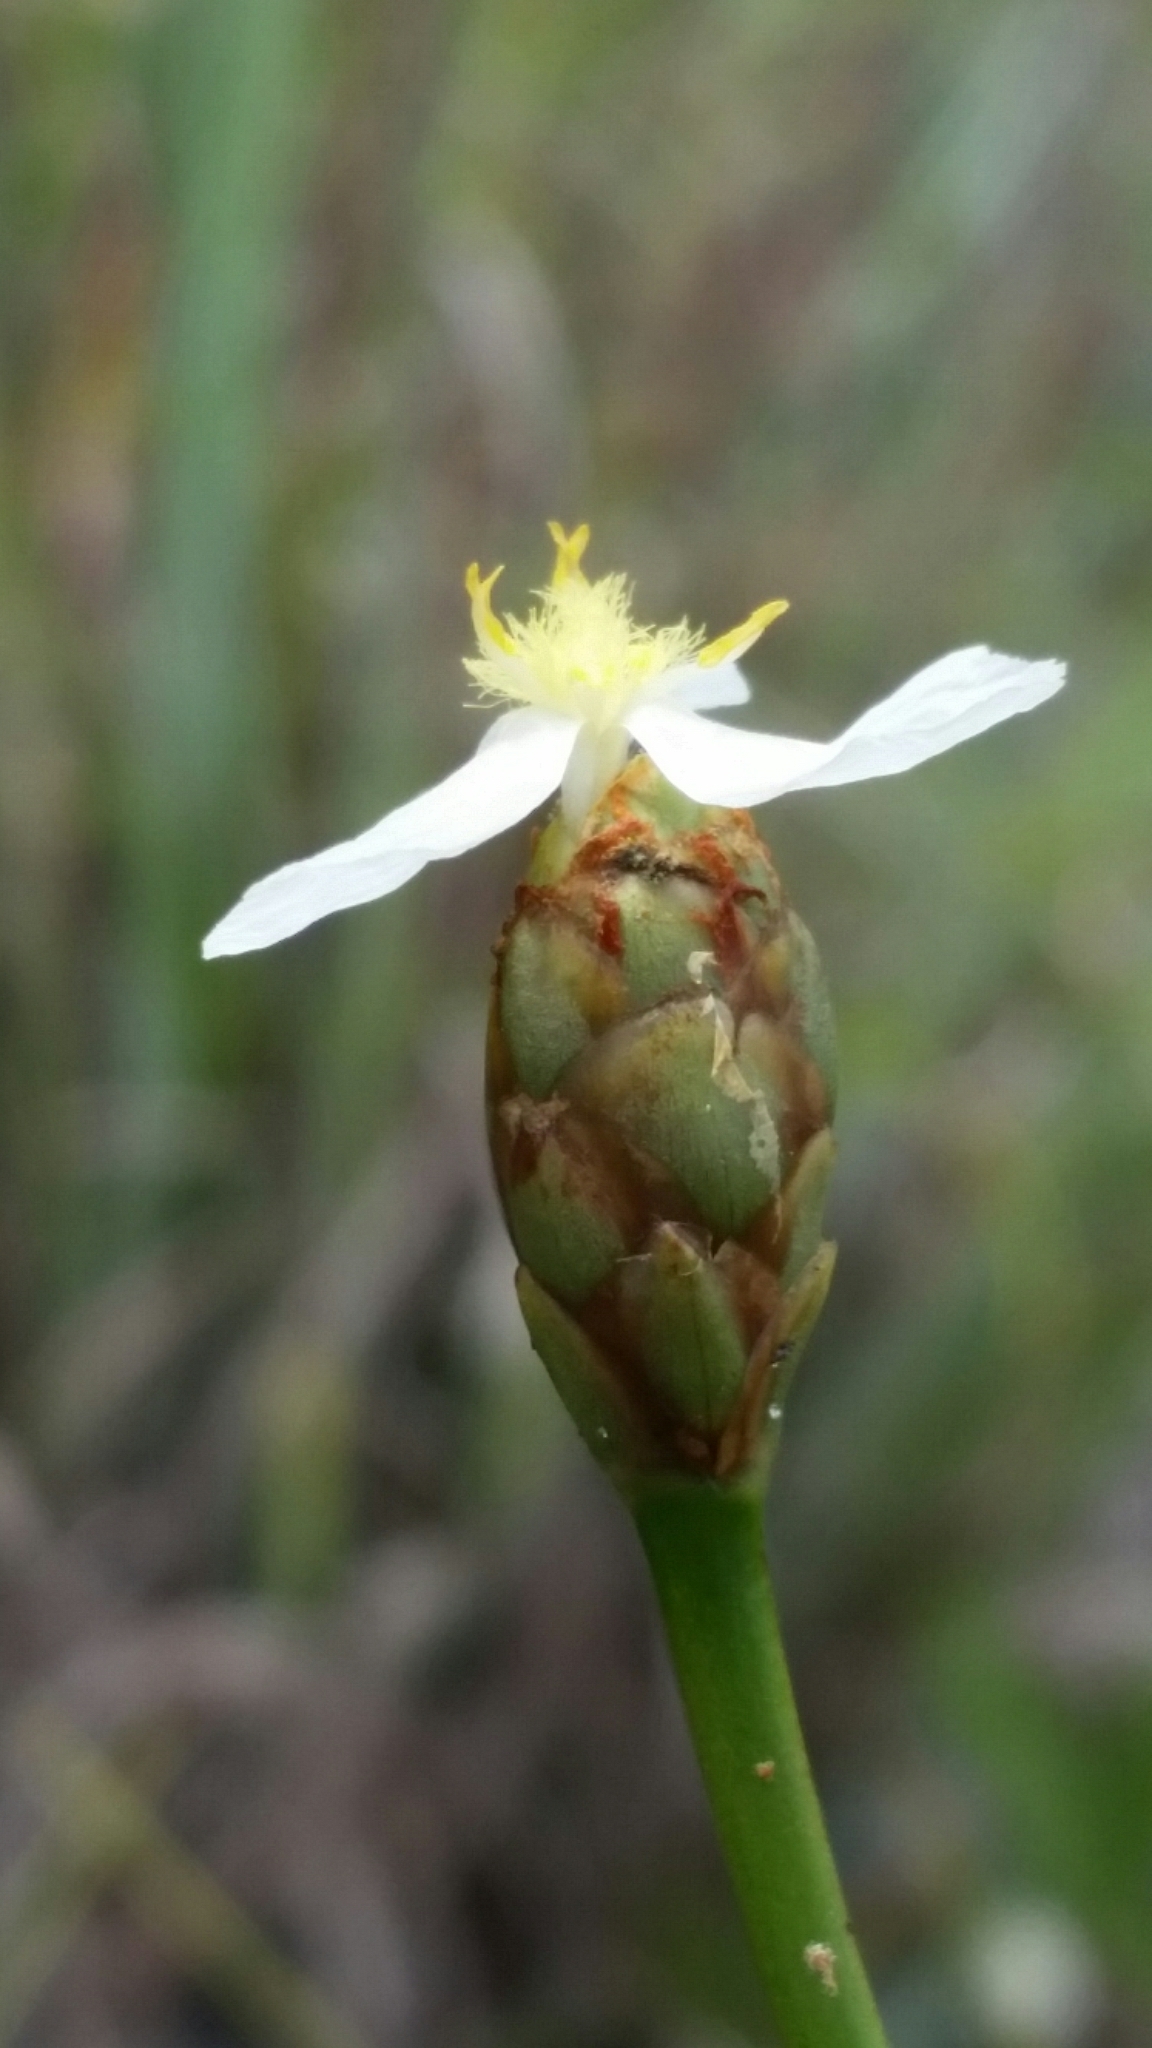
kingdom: Plantae
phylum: Tracheophyta
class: Liliopsida
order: Poales
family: Xyridaceae
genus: Xyris
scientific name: Xyris caroliniana
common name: Carolina yellow-eyed-grass
